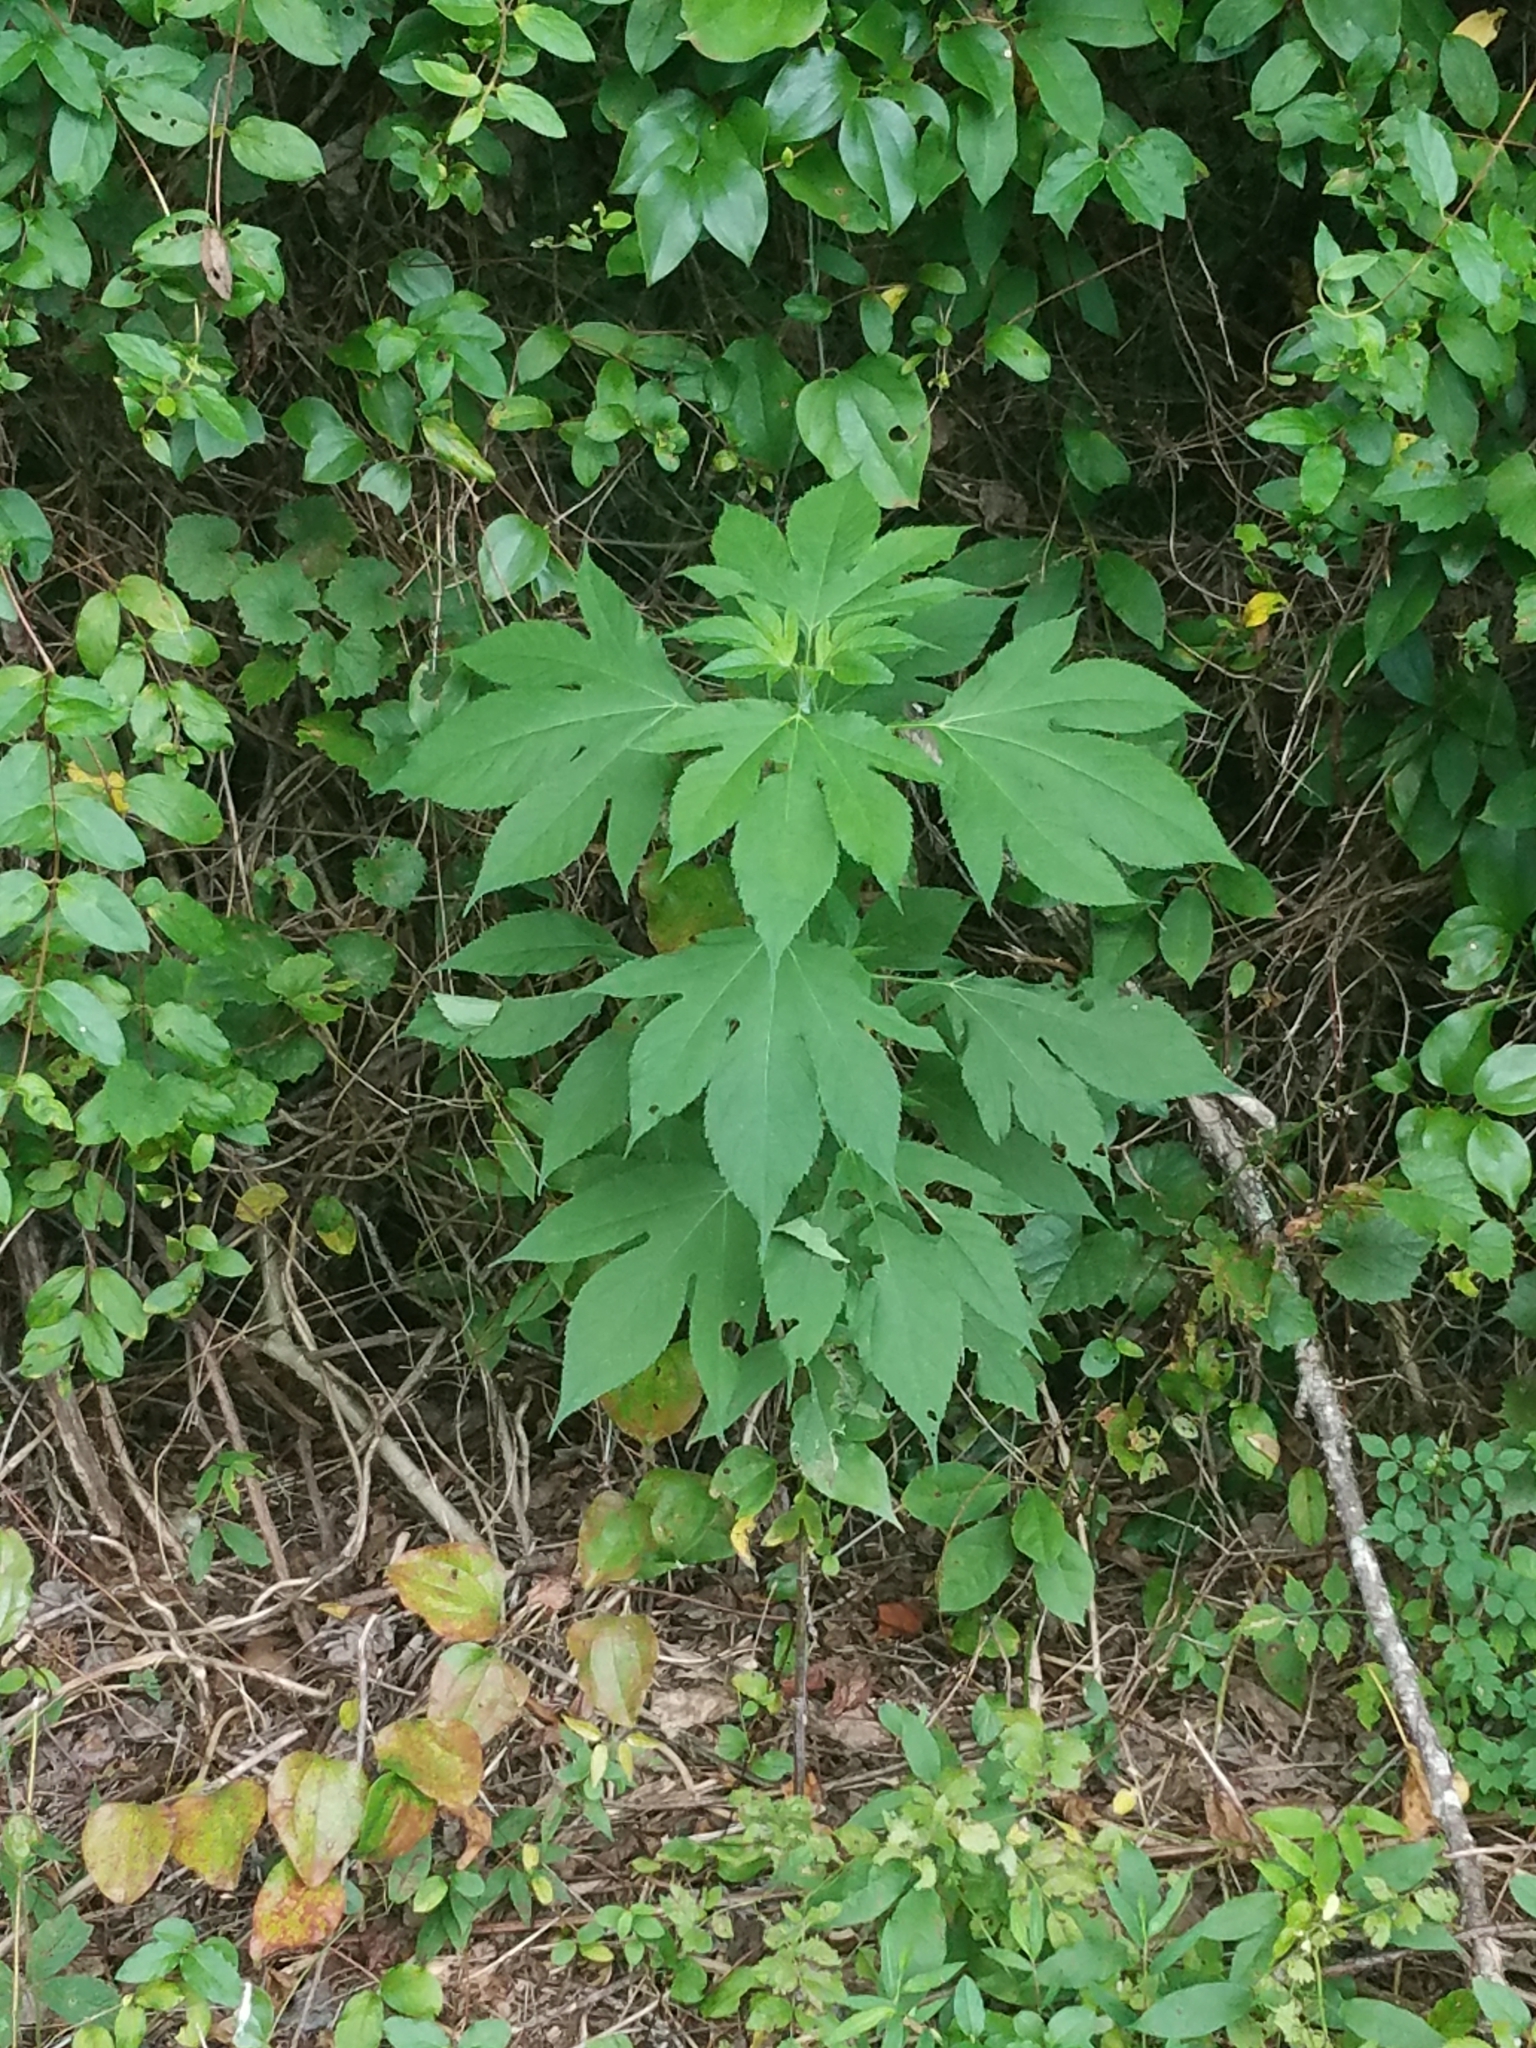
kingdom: Plantae
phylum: Tracheophyta
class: Magnoliopsida
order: Asterales
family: Asteraceae
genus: Ambrosia
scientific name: Ambrosia trifida
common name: Giant ragweed
